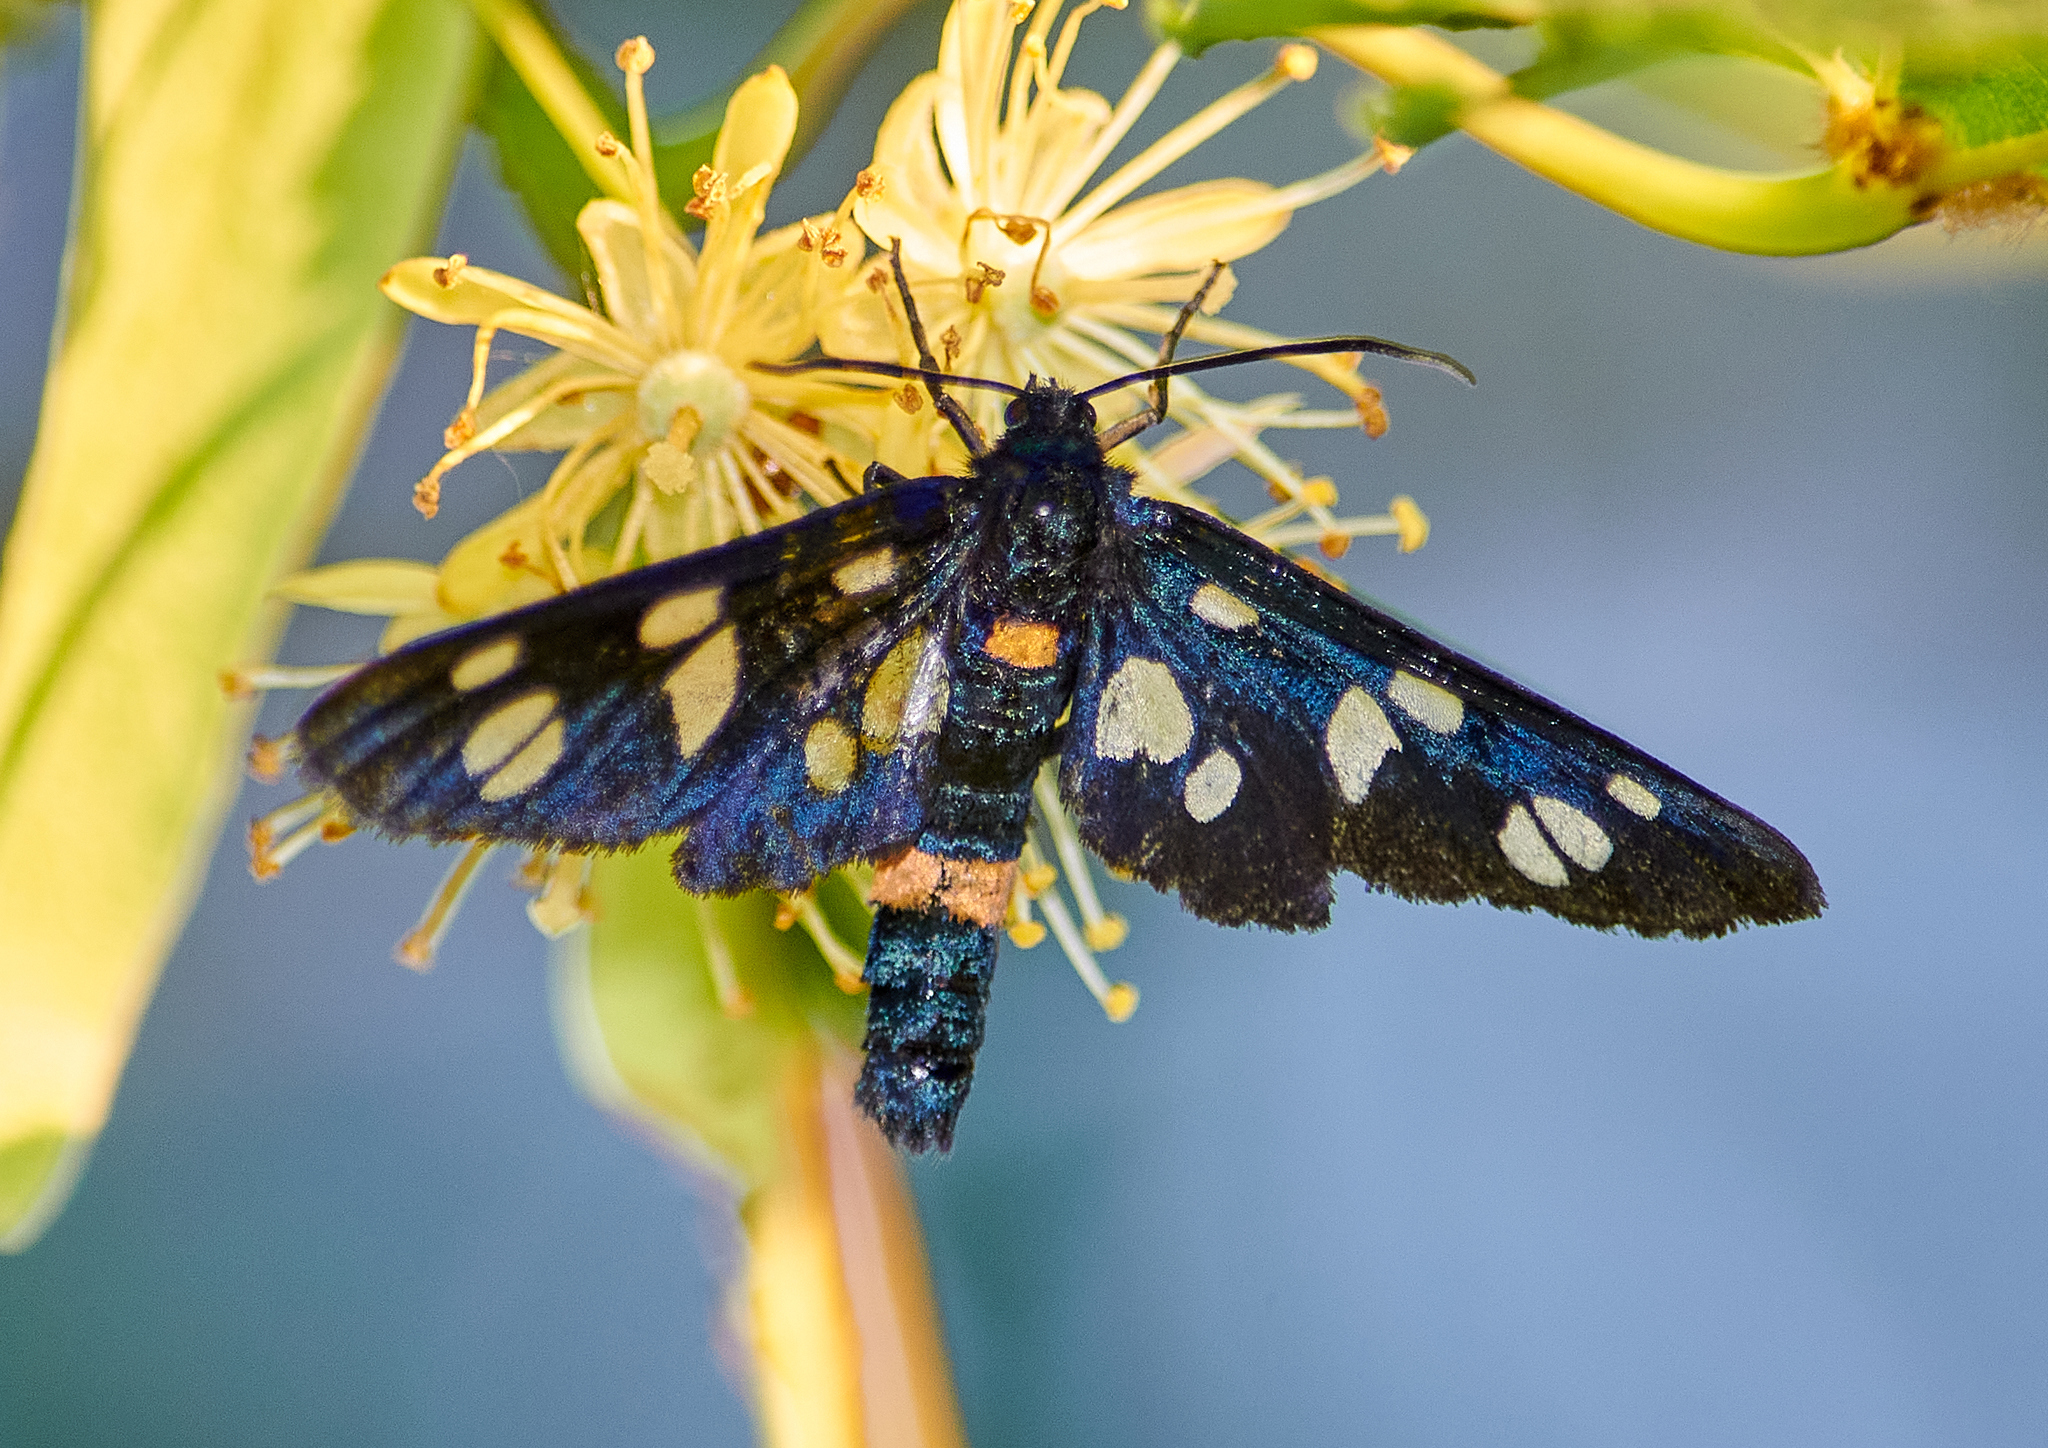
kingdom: Animalia
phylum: Arthropoda
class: Insecta
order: Lepidoptera
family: Erebidae
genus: Amata
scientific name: Amata nigricornis
